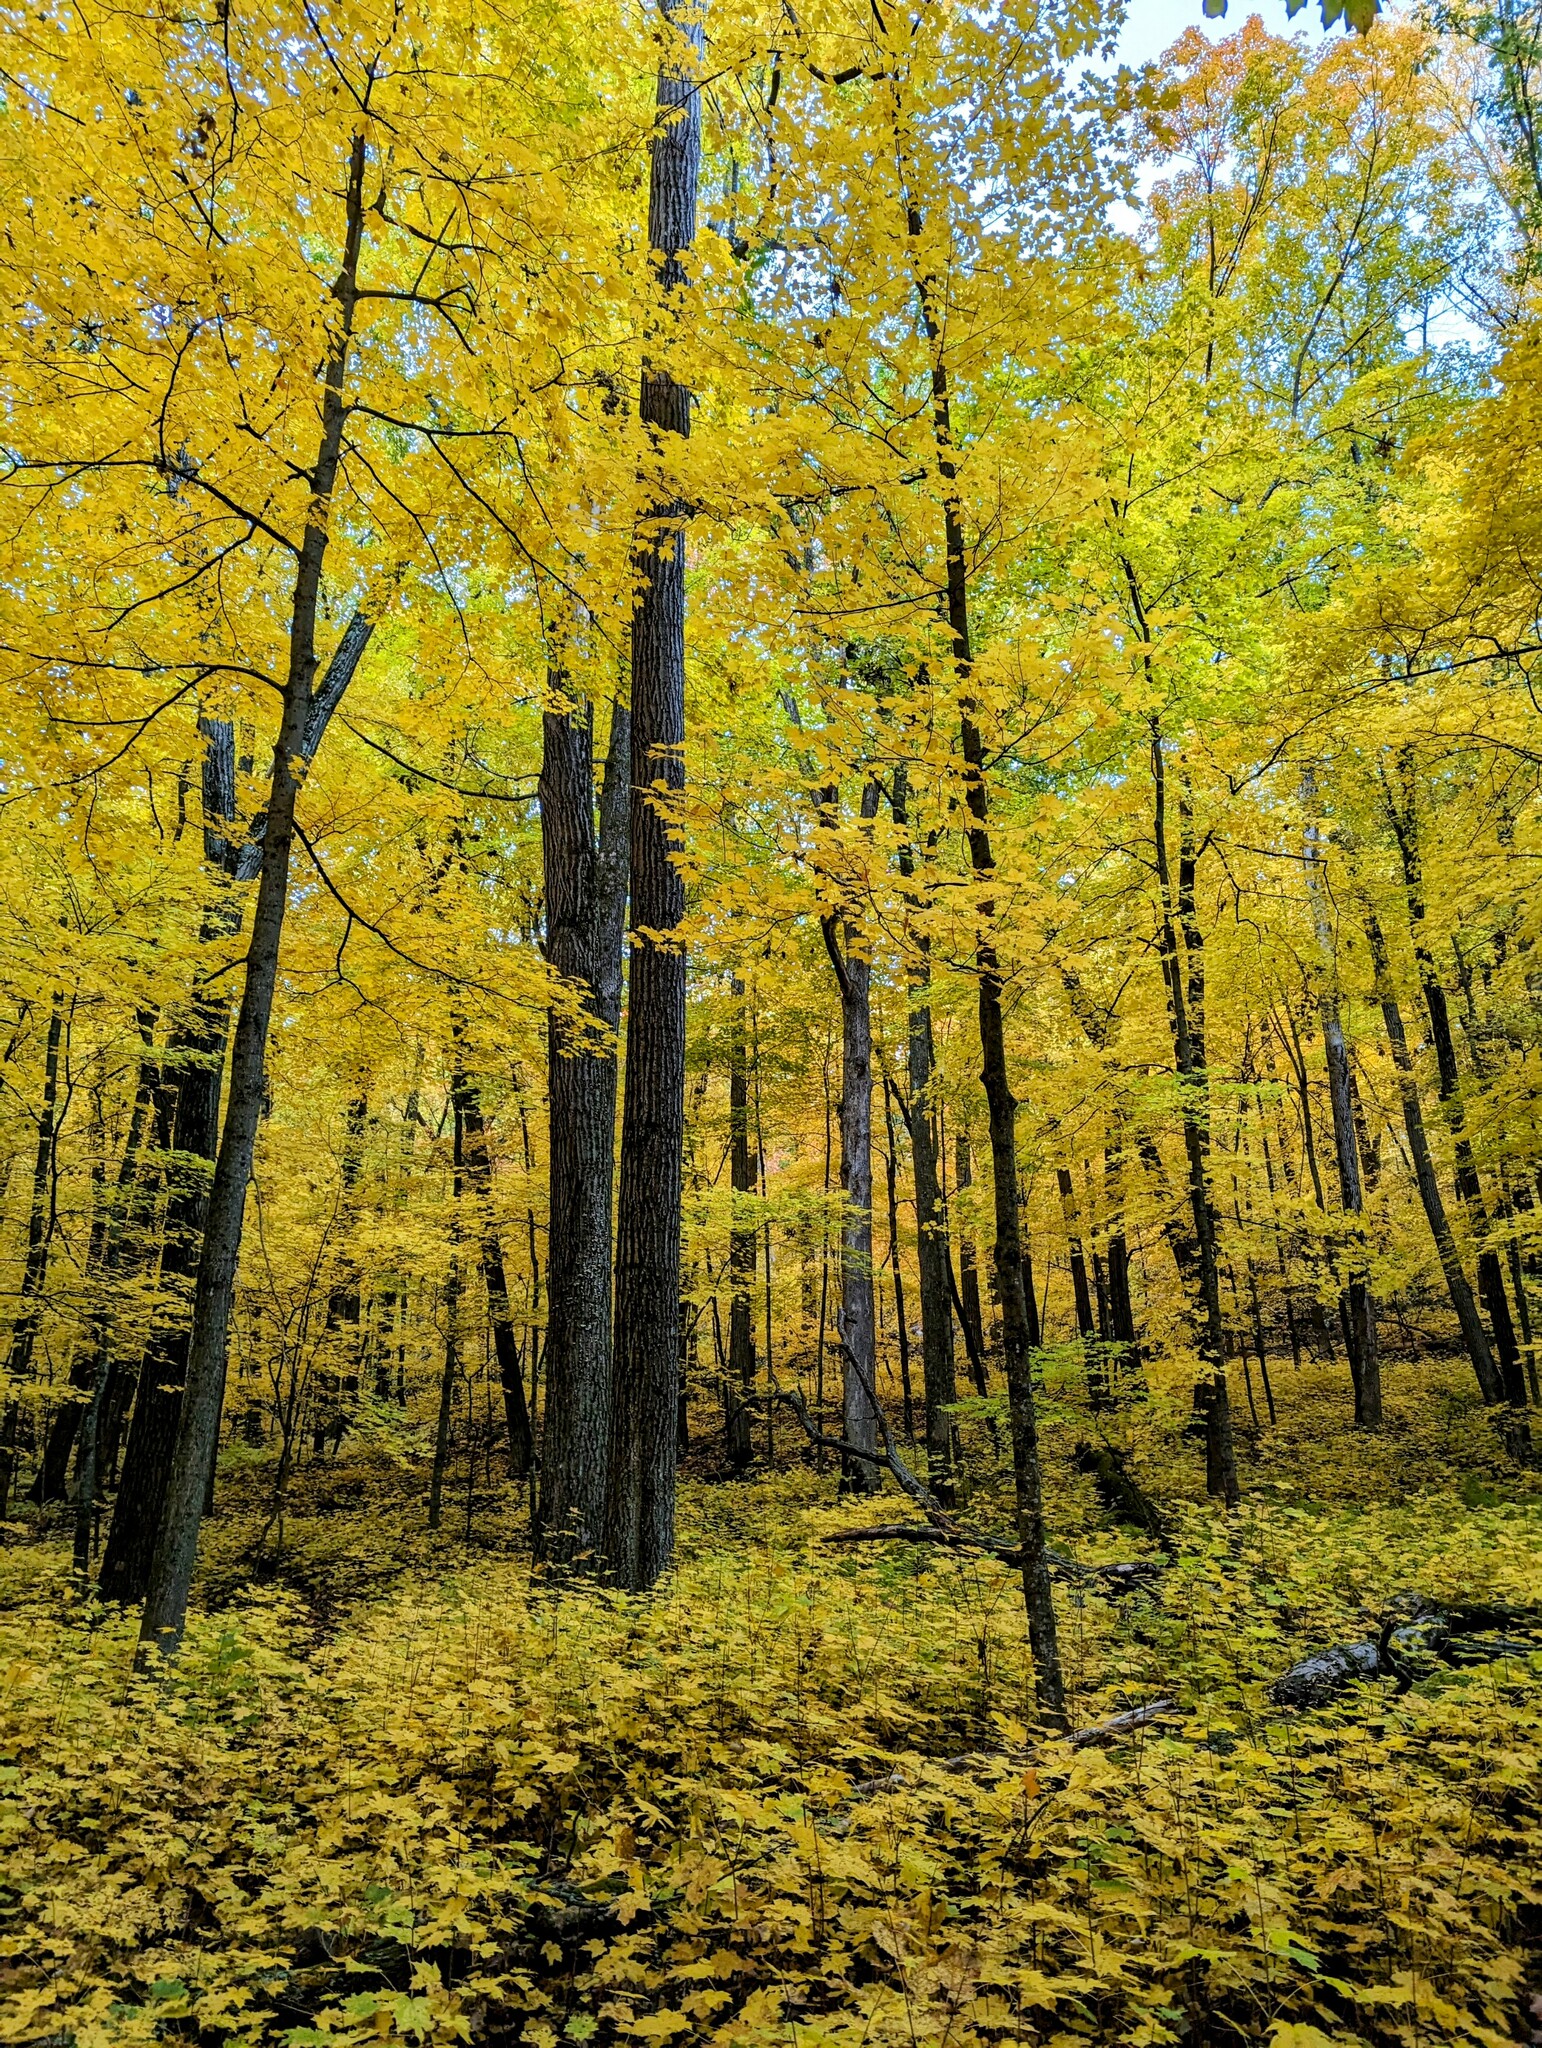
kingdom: Plantae
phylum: Tracheophyta
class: Magnoliopsida
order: Sapindales
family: Sapindaceae
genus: Acer
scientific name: Acer saccharum
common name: Sugar maple
